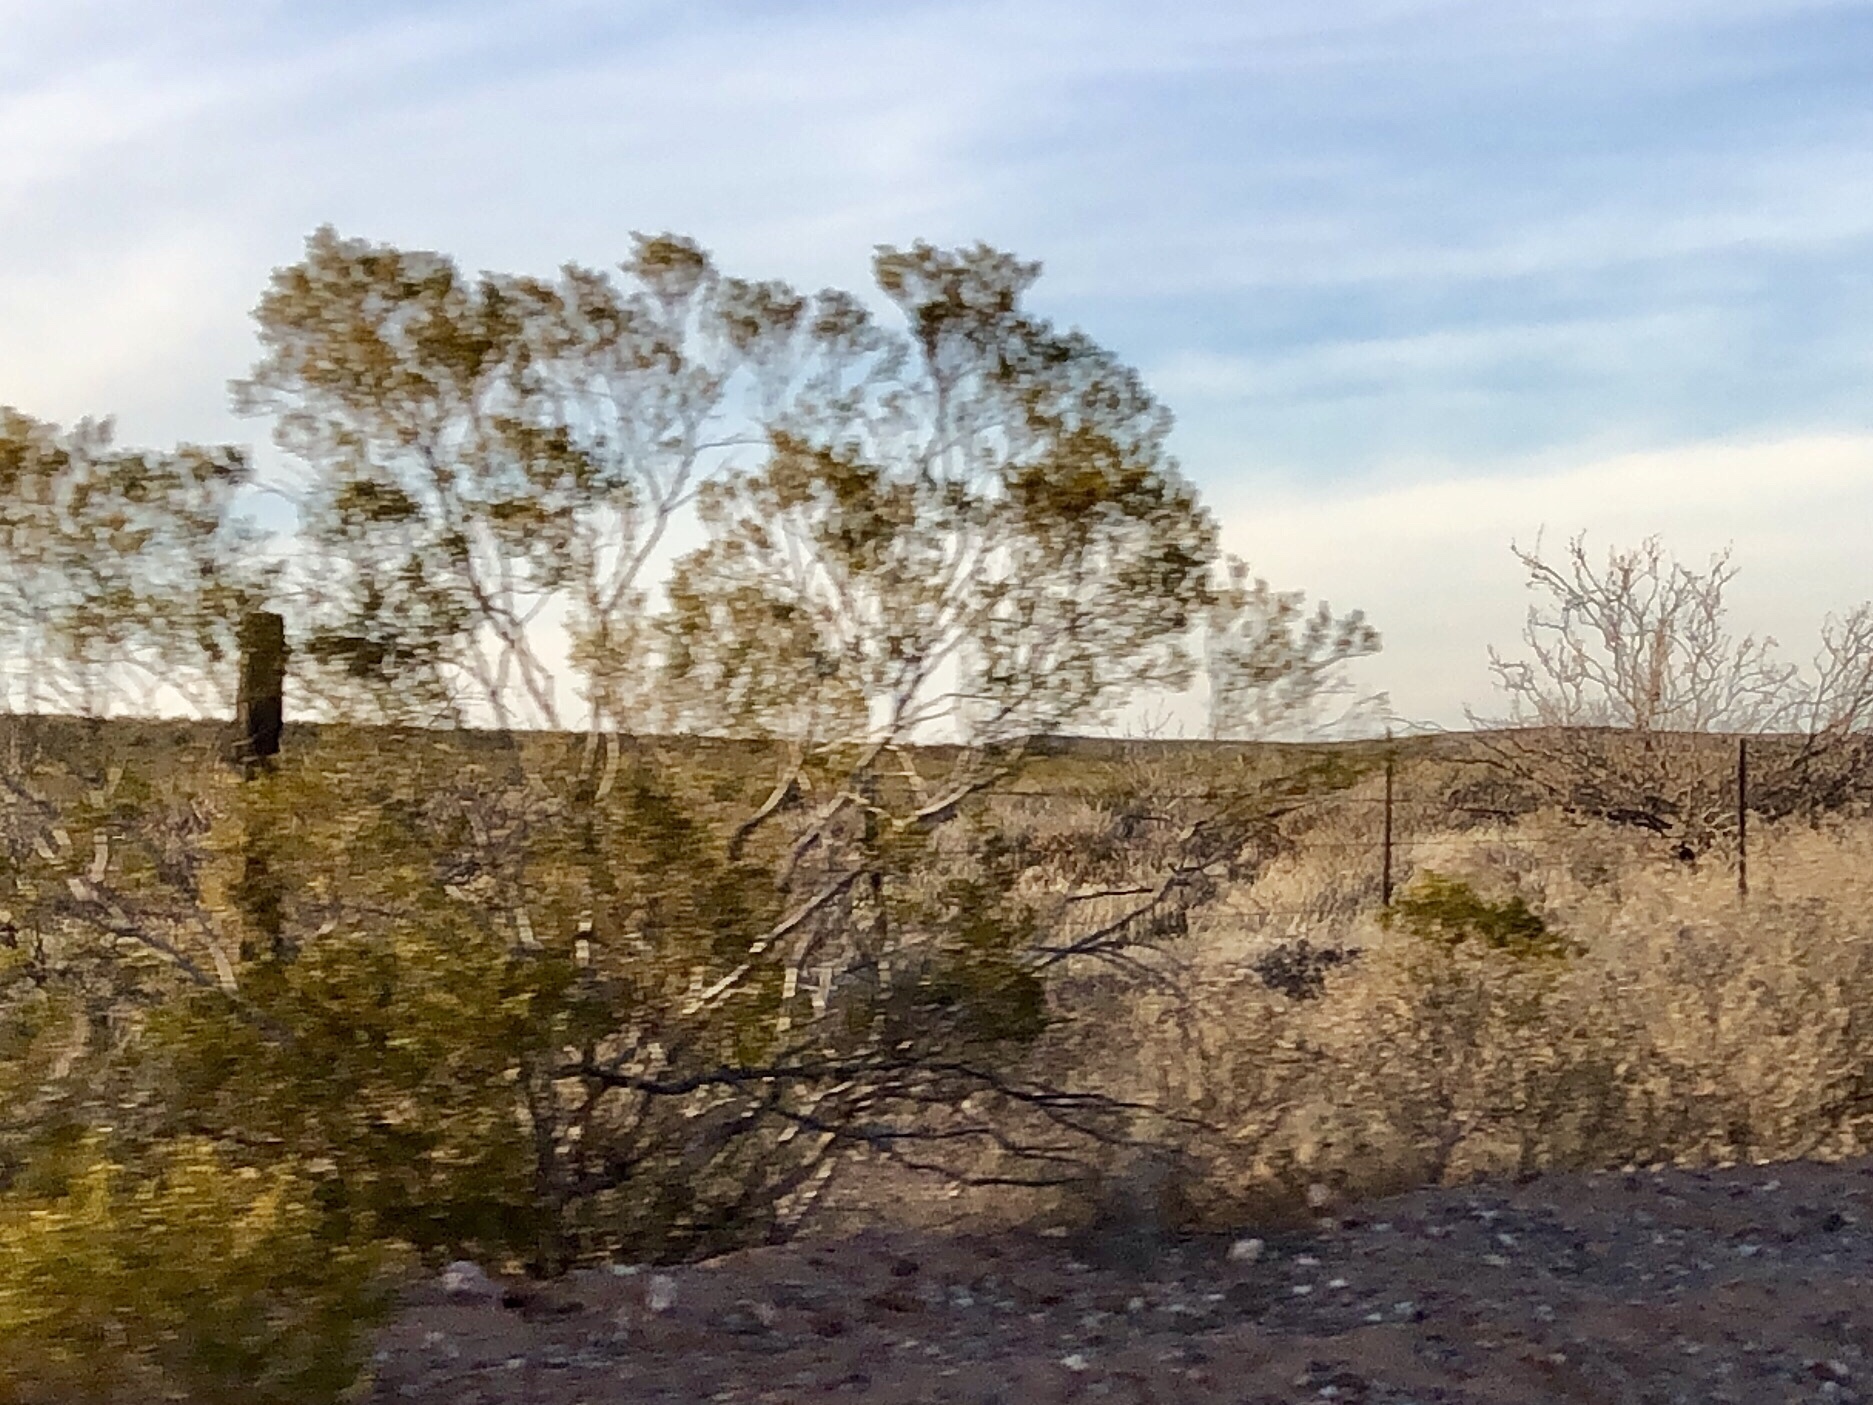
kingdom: Plantae
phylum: Tracheophyta
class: Magnoliopsida
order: Zygophyllales
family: Zygophyllaceae
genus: Larrea
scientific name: Larrea tridentata
